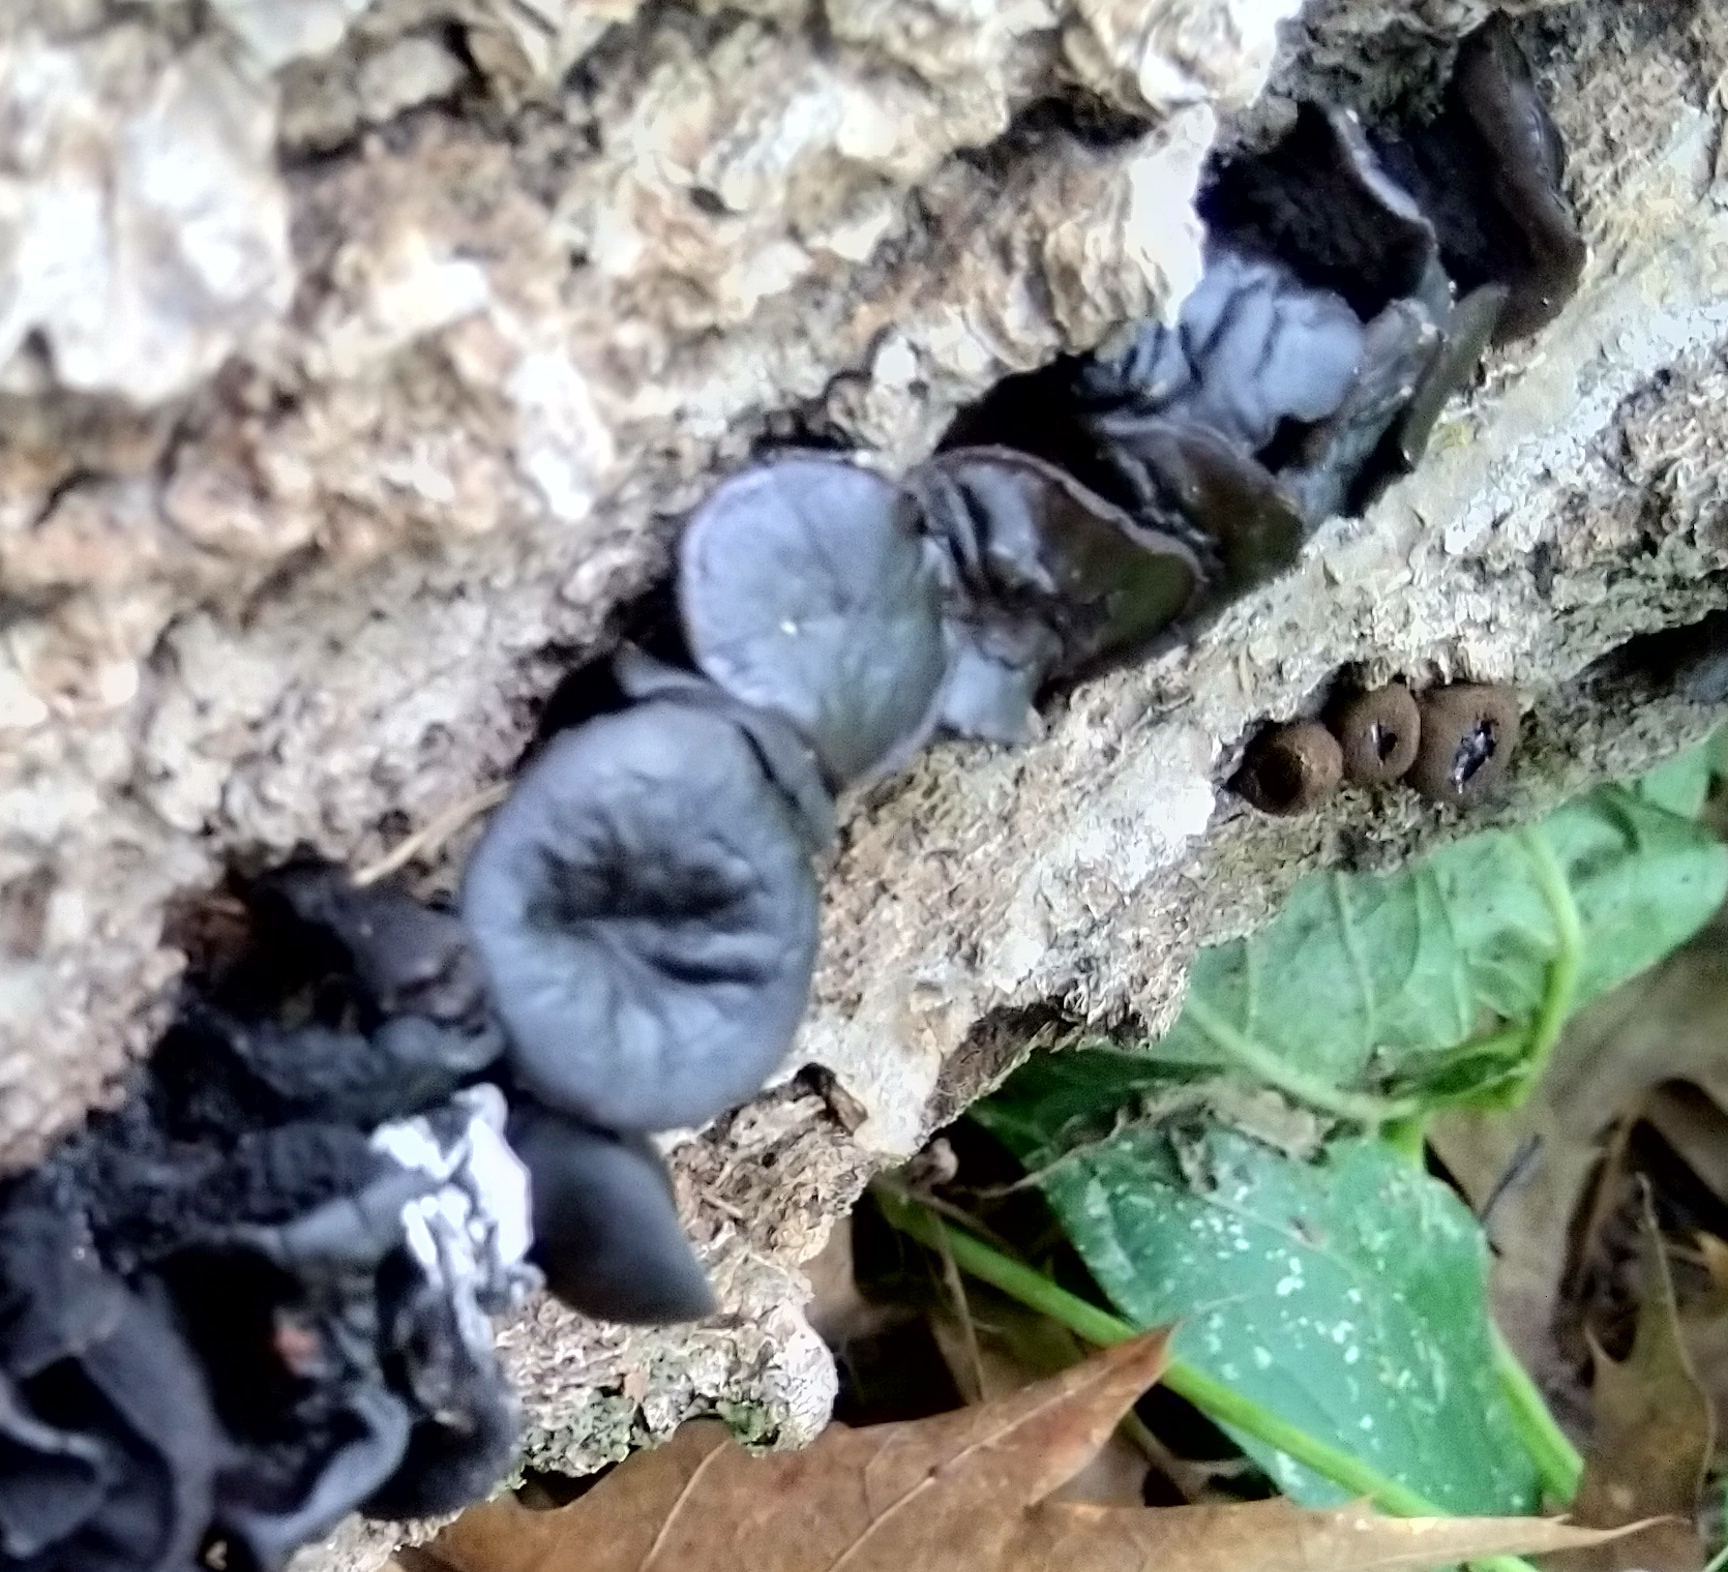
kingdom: Fungi
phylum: Ascomycota
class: Leotiomycetes
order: Phacidiales
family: Phacidiaceae
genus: Bulgaria
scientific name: Bulgaria inquinans
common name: Black bulgar
